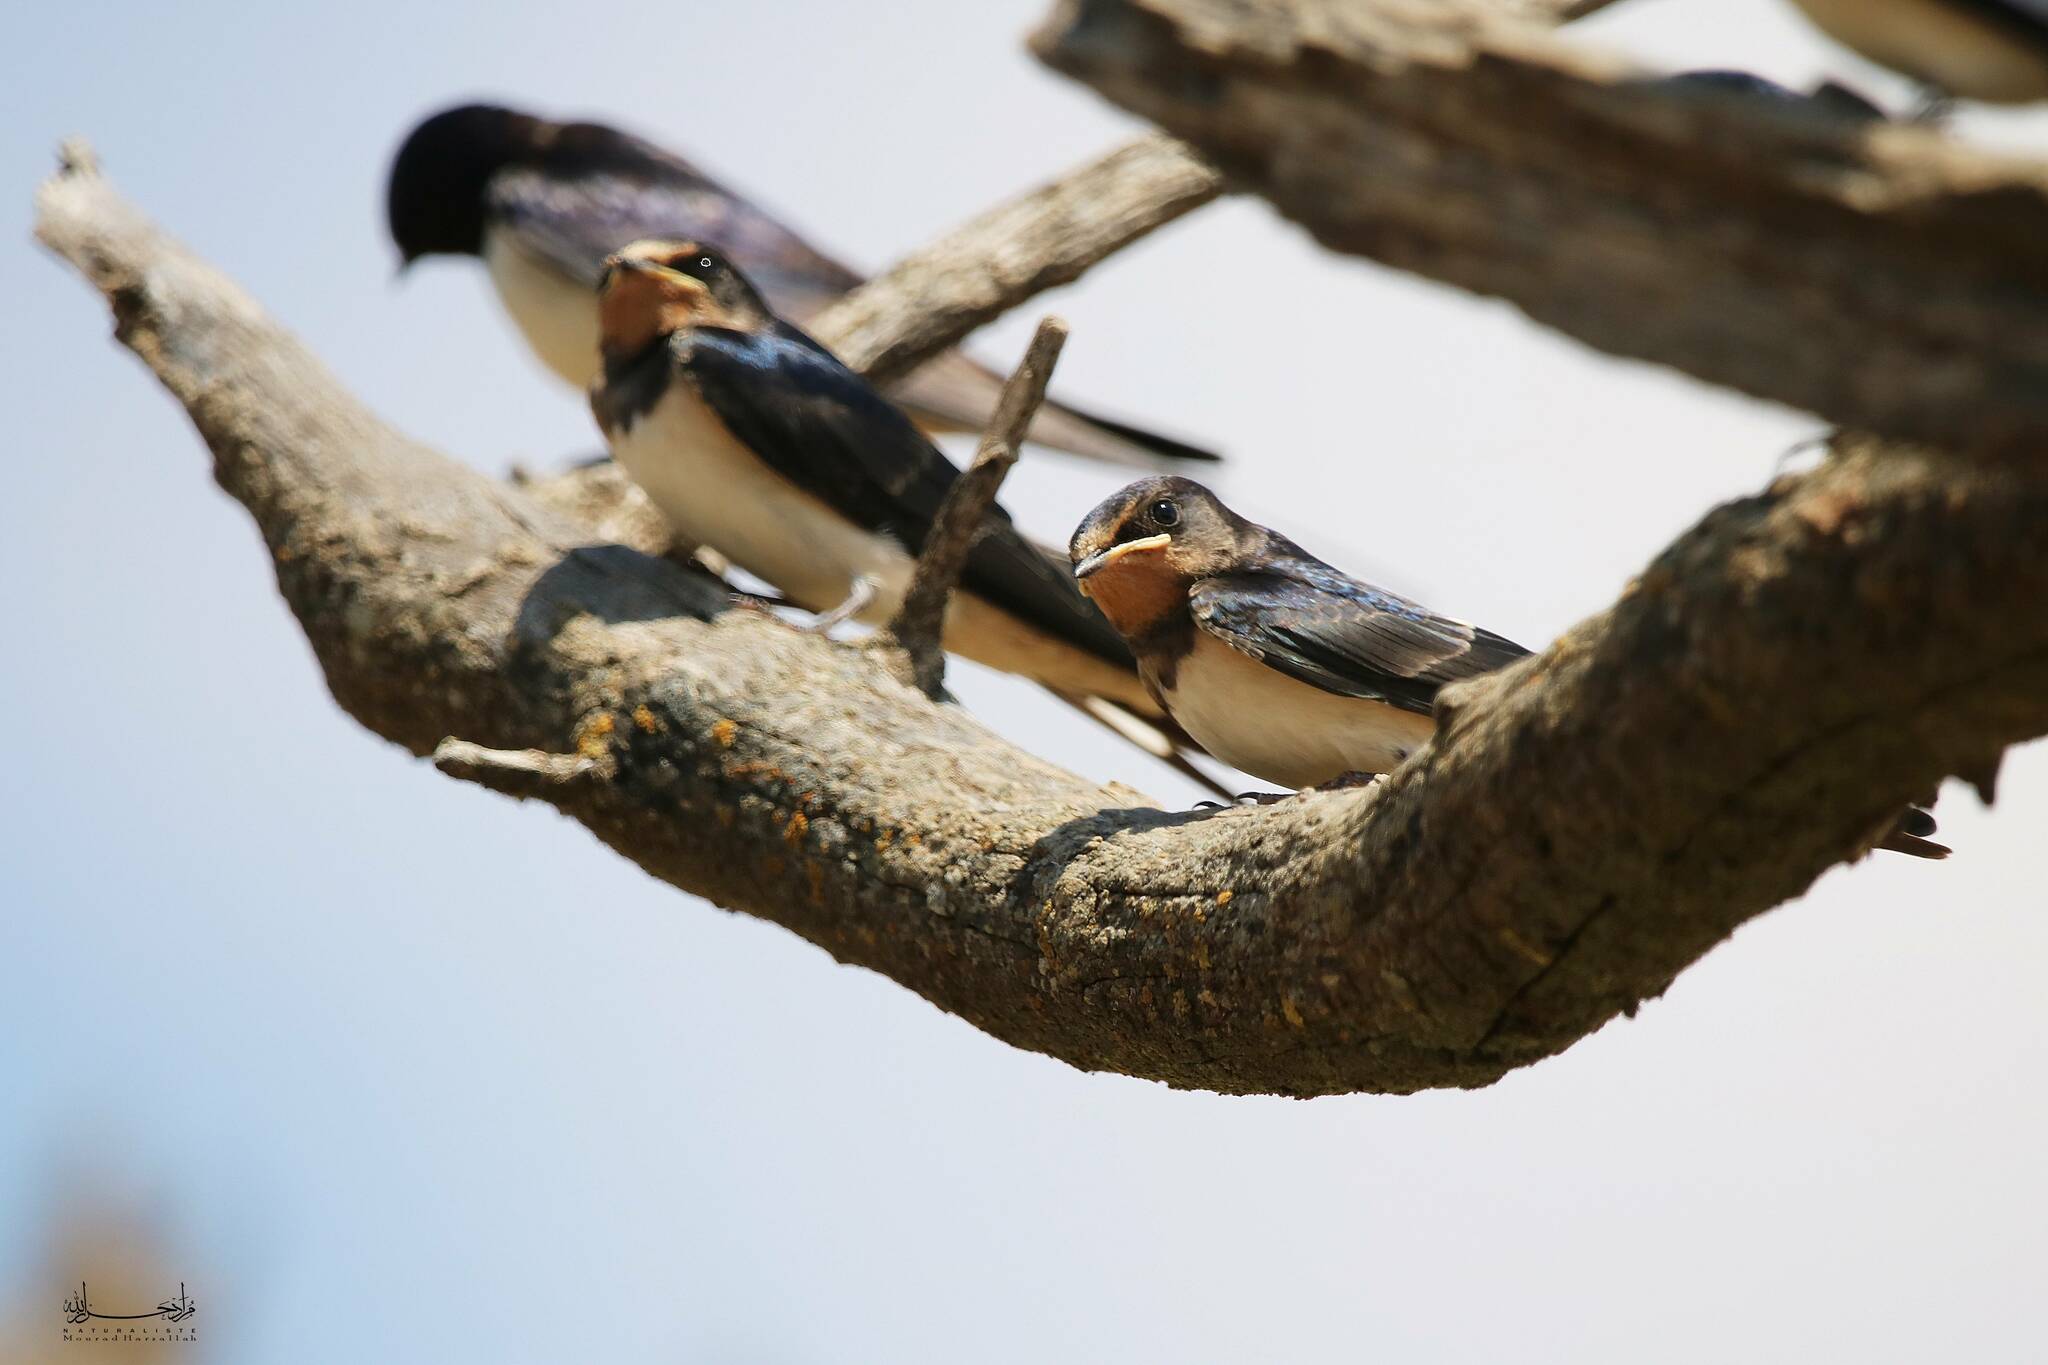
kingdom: Animalia
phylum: Chordata
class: Aves
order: Passeriformes
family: Hirundinidae
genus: Hirundo
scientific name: Hirundo rustica
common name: Barn swallow
